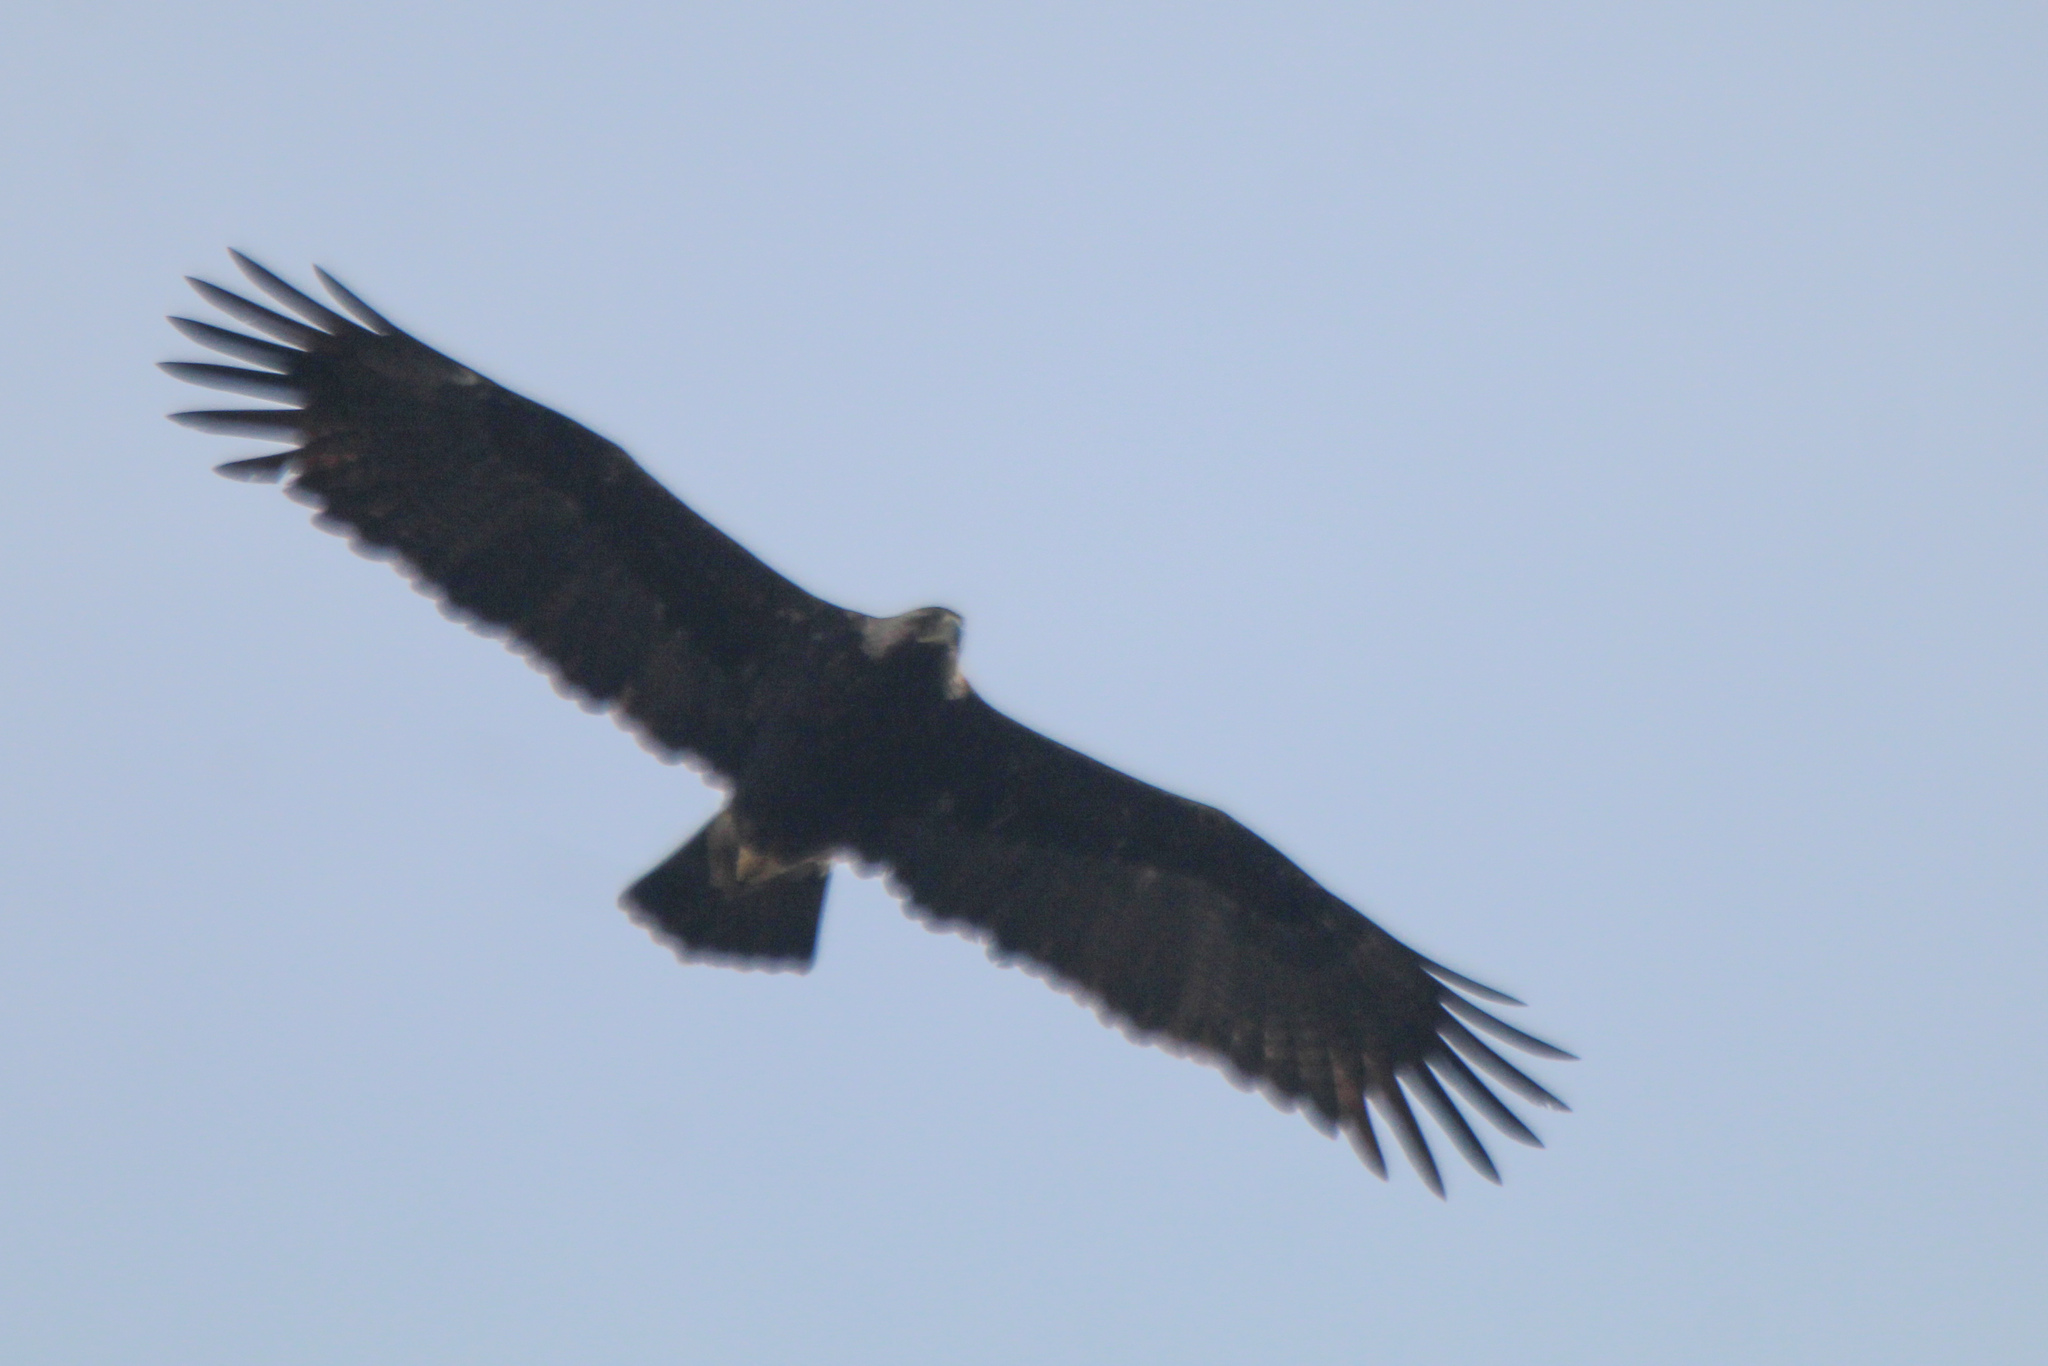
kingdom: Animalia
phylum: Chordata
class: Aves
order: Accipitriformes
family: Accipitridae
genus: Aquila
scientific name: Aquila heliaca
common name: Eastern imperial eagle
